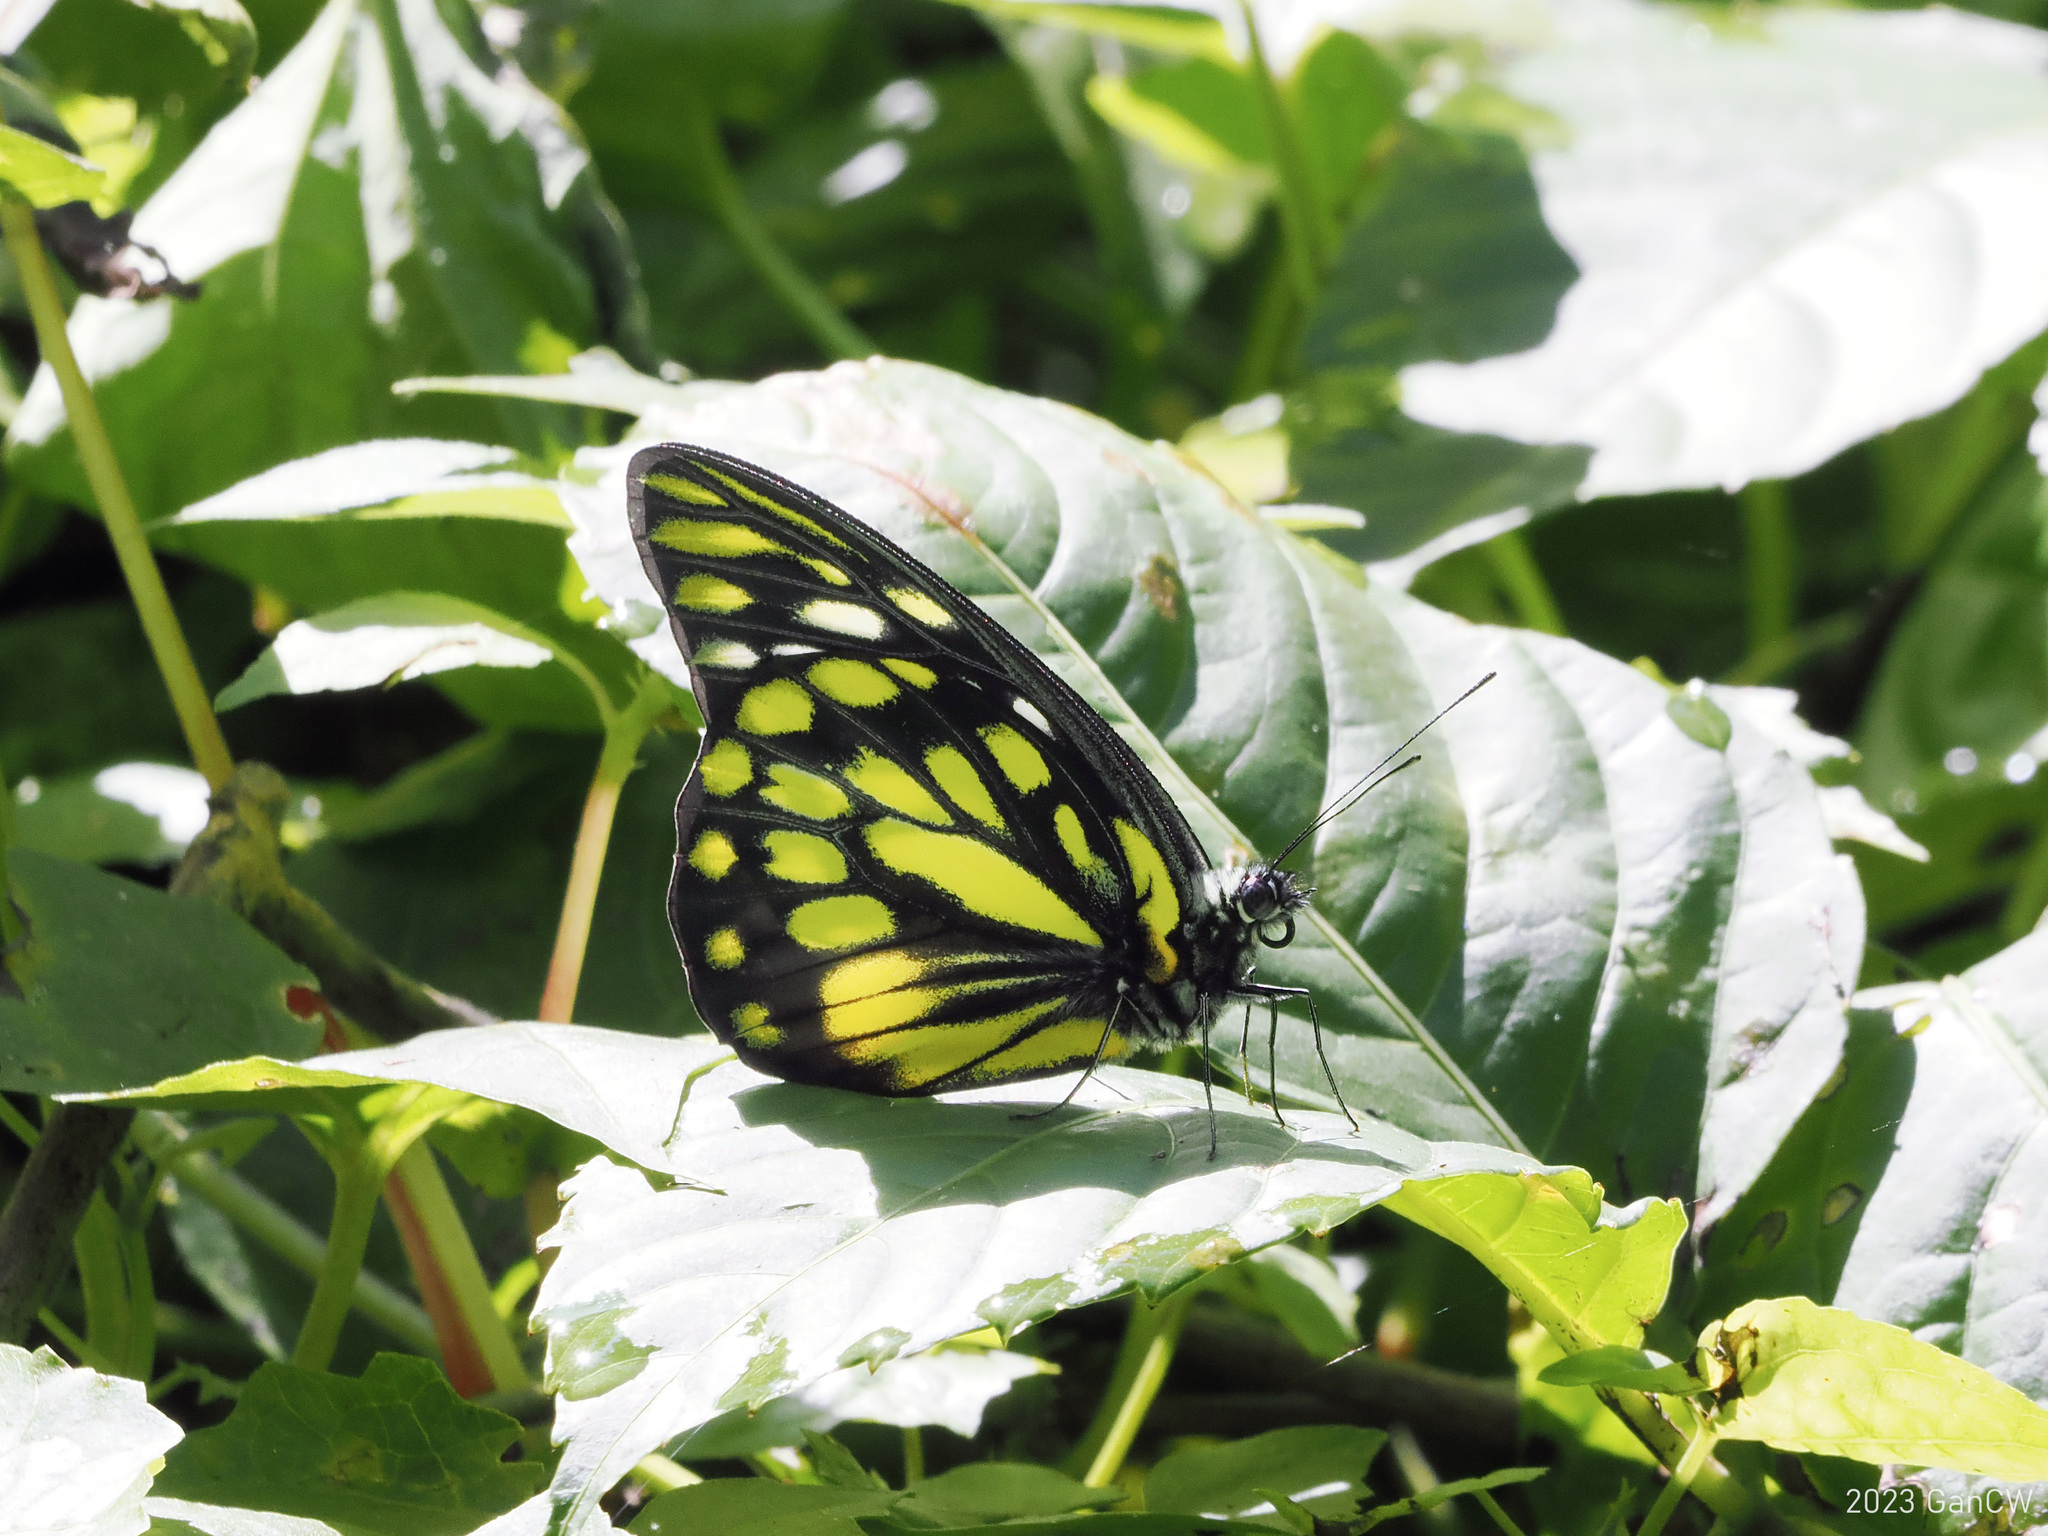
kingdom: Animalia
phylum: Arthropoda
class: Insecta
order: Lepidoptera
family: Pieridae
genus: Prioneris
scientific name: Prioneris thestylis
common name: Spotted sawtooth
